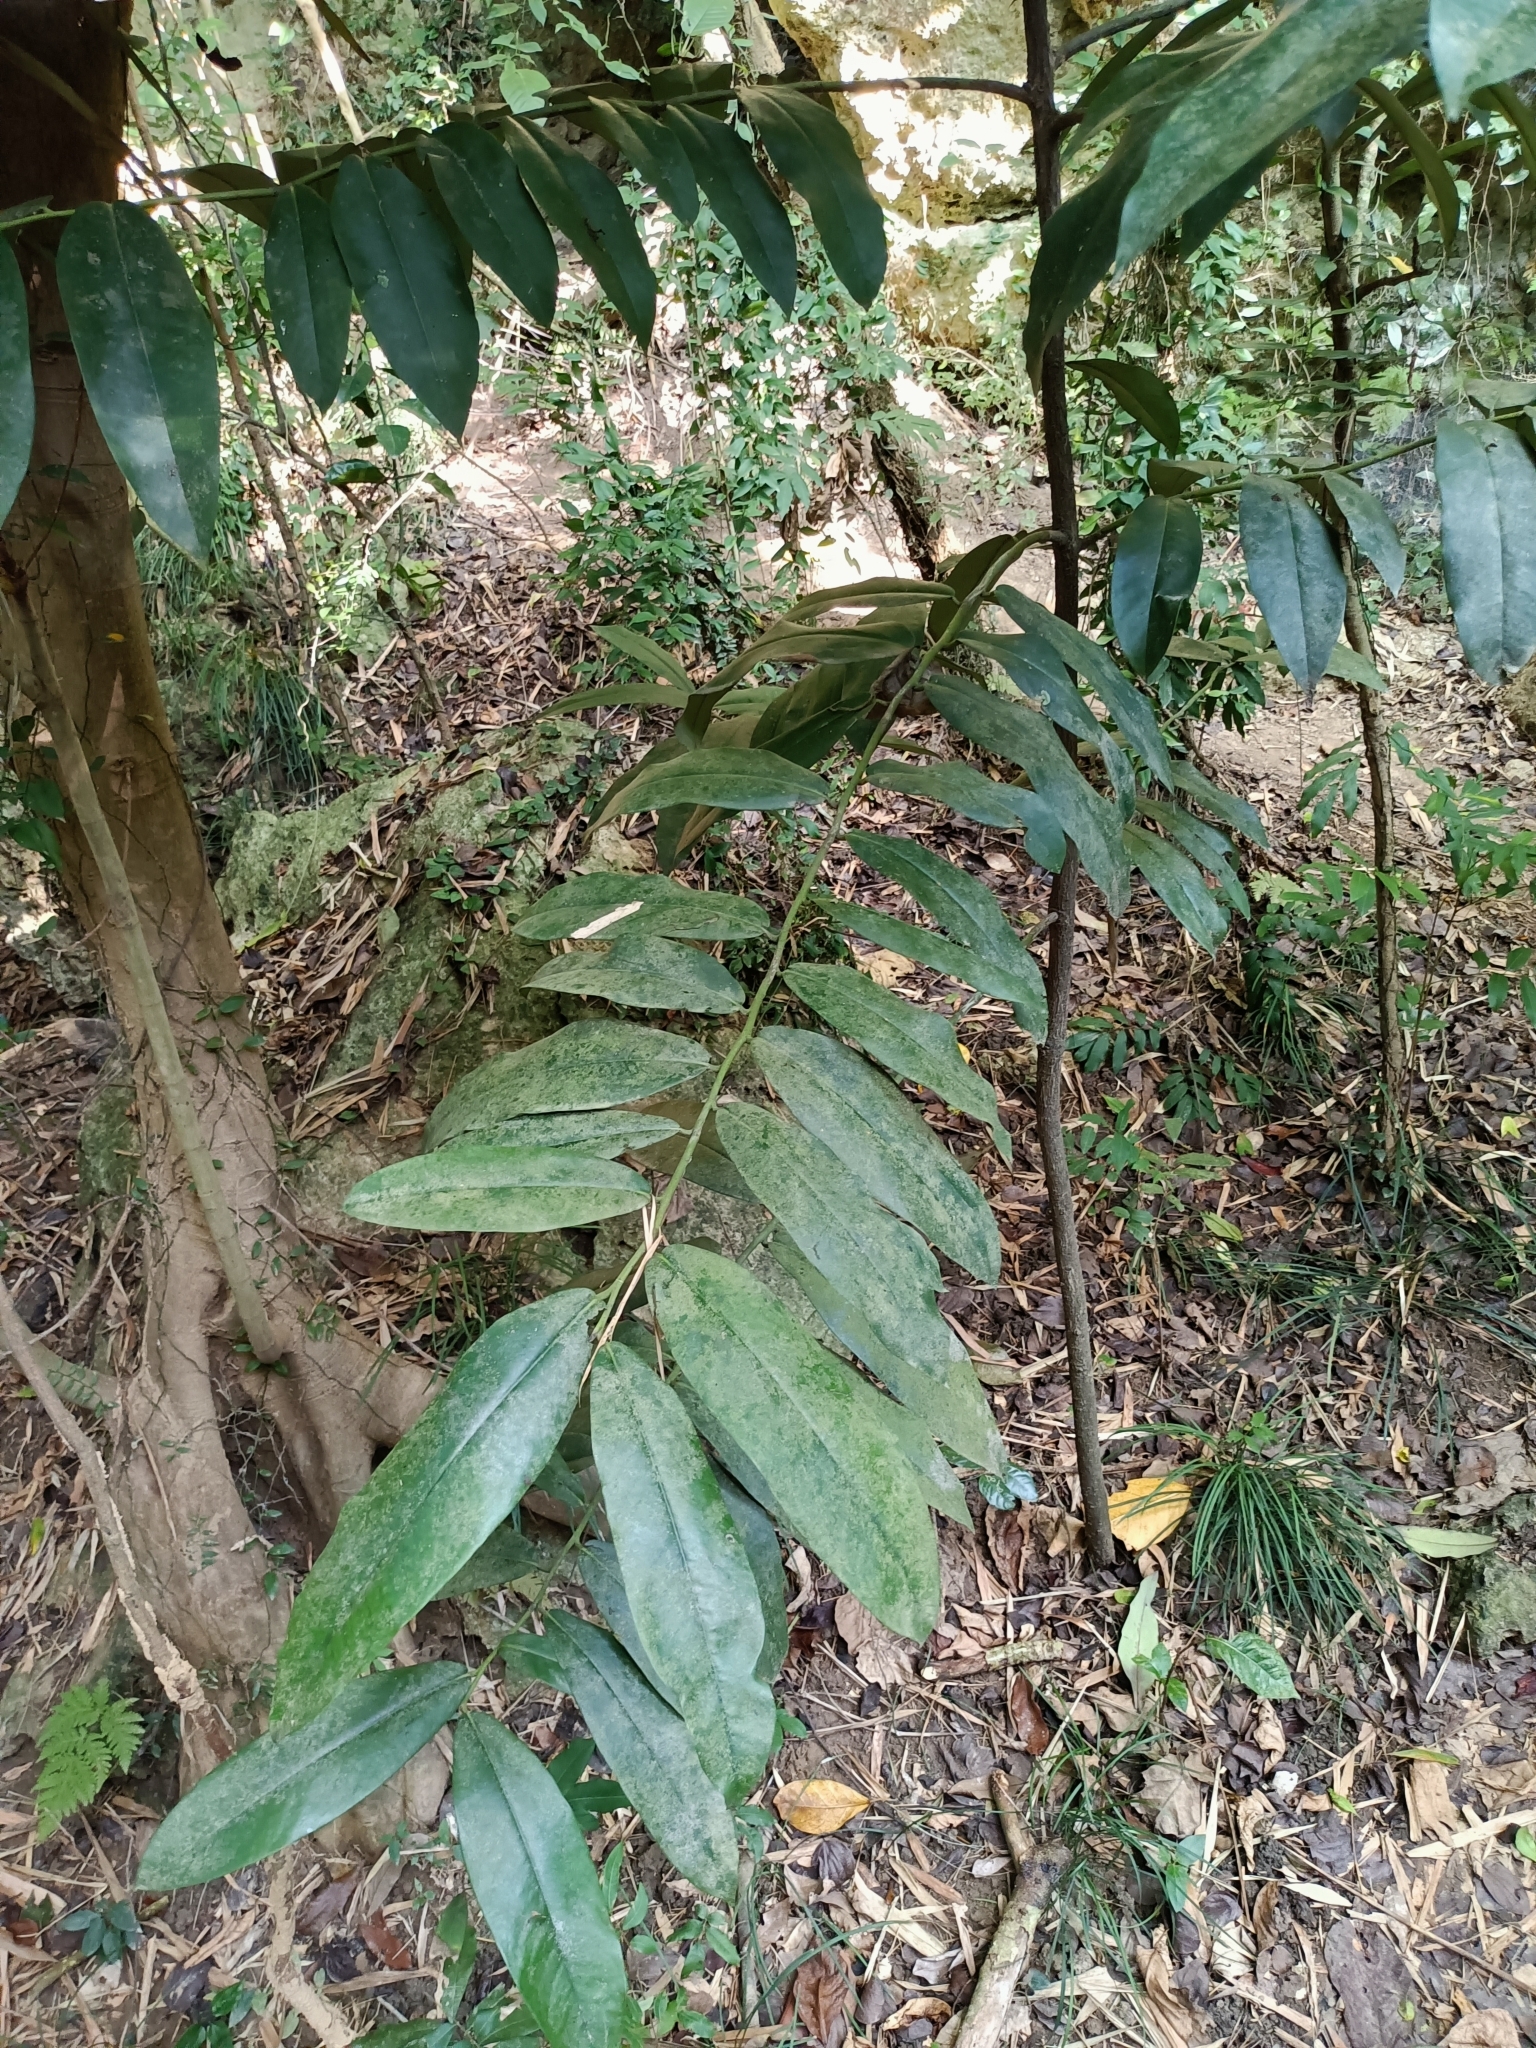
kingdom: Plantae
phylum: Tracheophyta
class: Magnoliopsida
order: Ericales
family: Ebenaceae
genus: Diospyros
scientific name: Diospyros blancoi
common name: Mabola-tree
